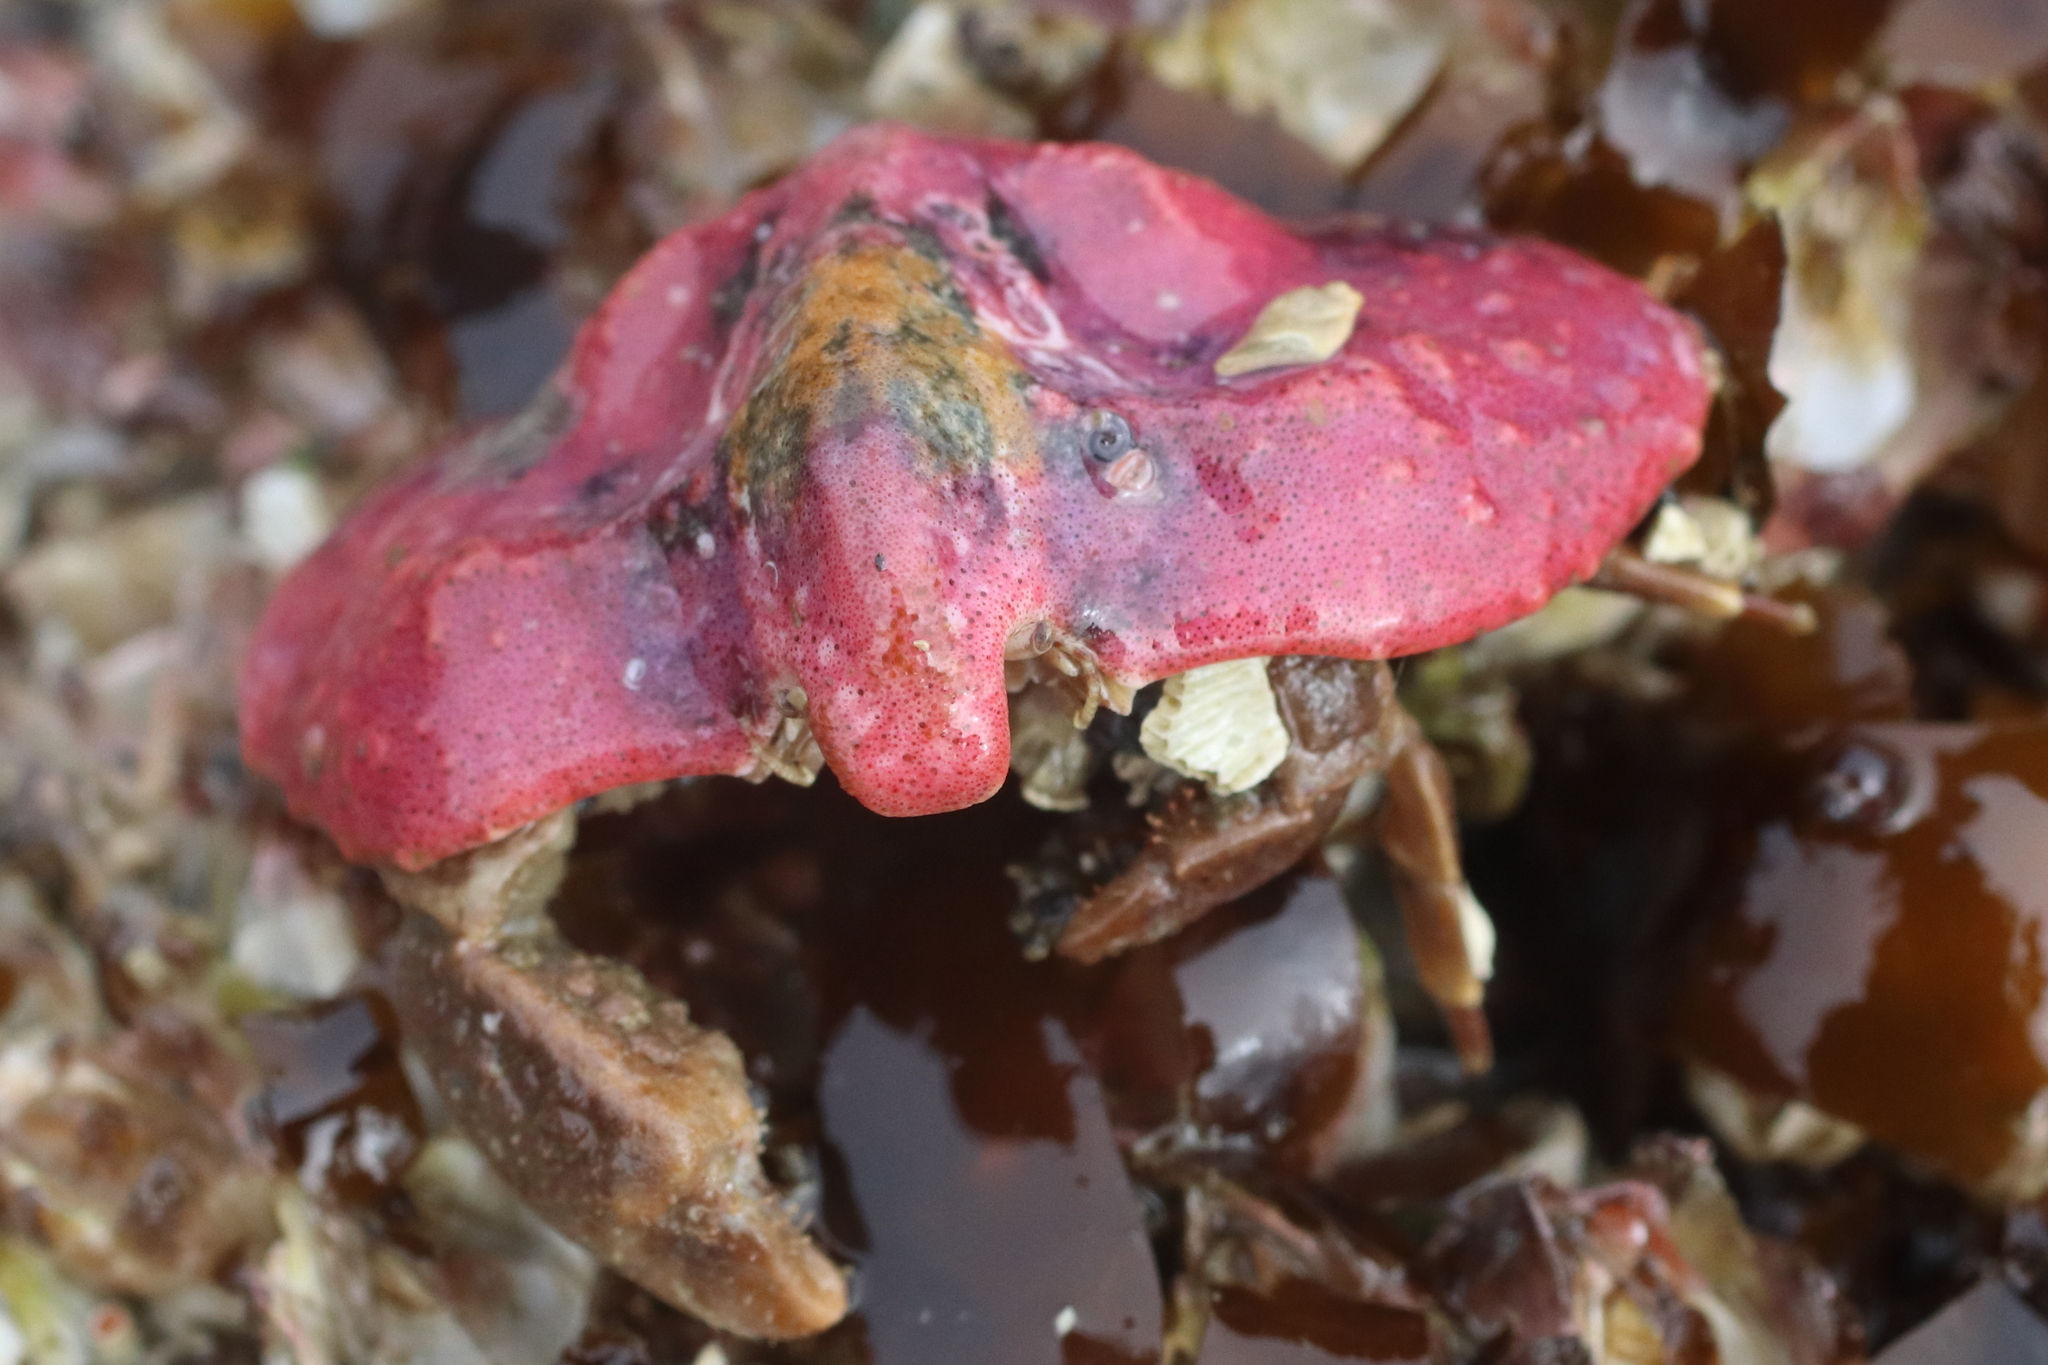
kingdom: Animalia
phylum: Arthropoda
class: Malacostraca
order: Decapoda
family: Lithodidae
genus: Cryptolithodes
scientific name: Cryptolithodes typicus
